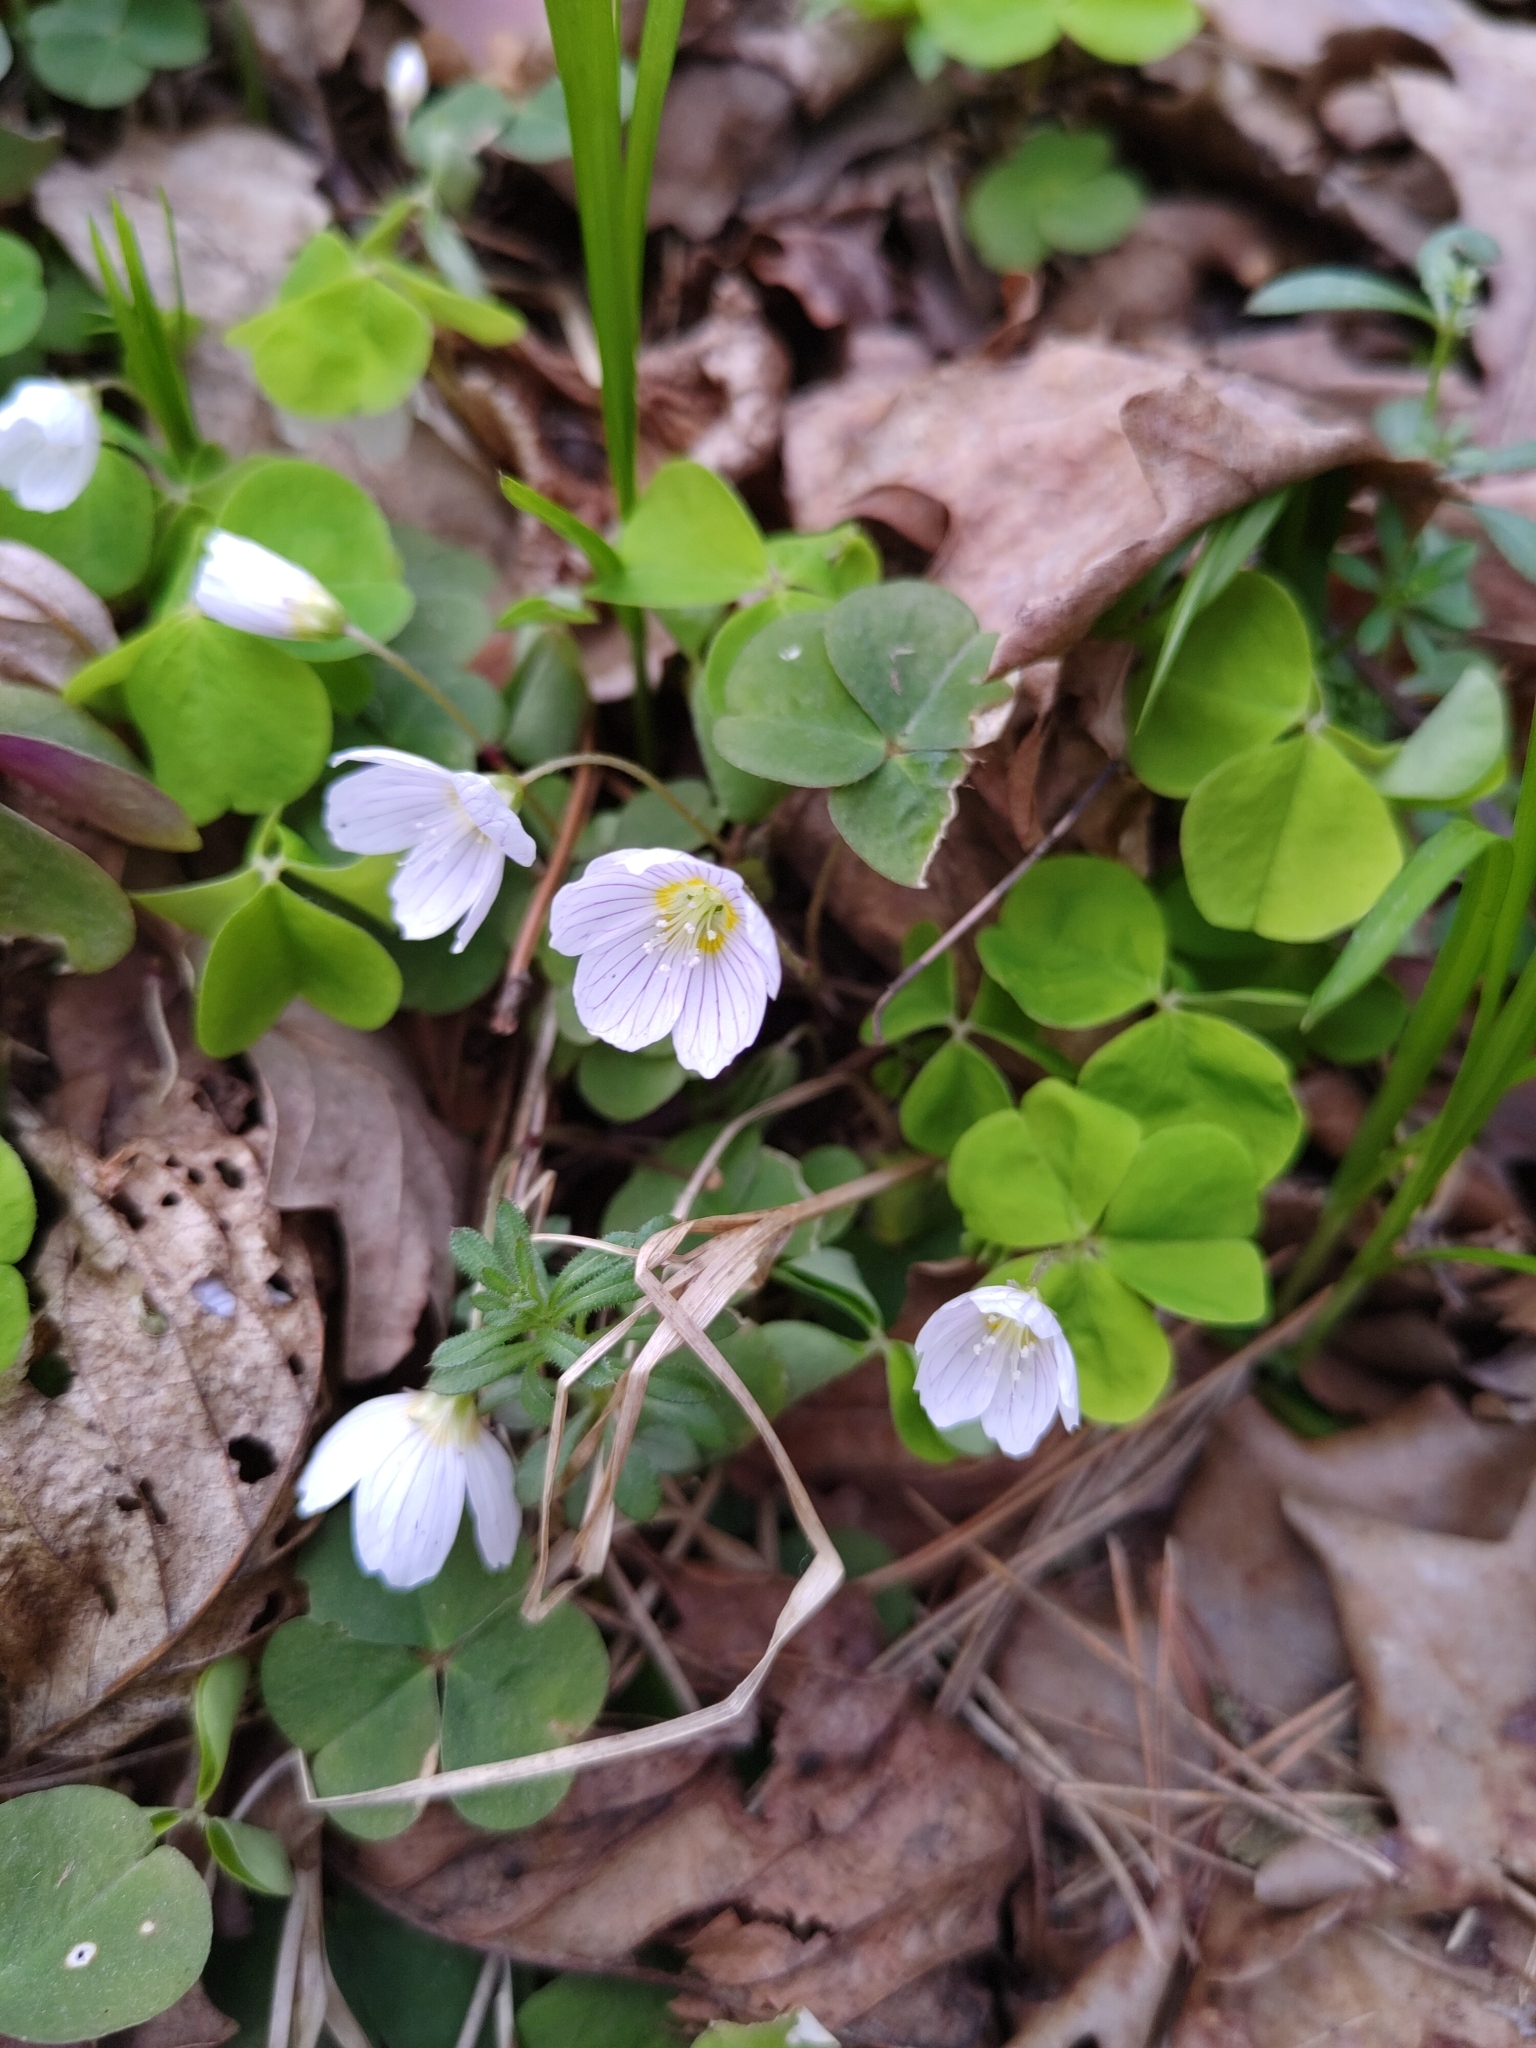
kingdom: Plantae
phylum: Tracheophyta
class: Magnoliopsida
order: Oxalidales
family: Oxalidaceae
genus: Oxalis
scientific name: Oxalis acetosella
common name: Wood-sorrel
